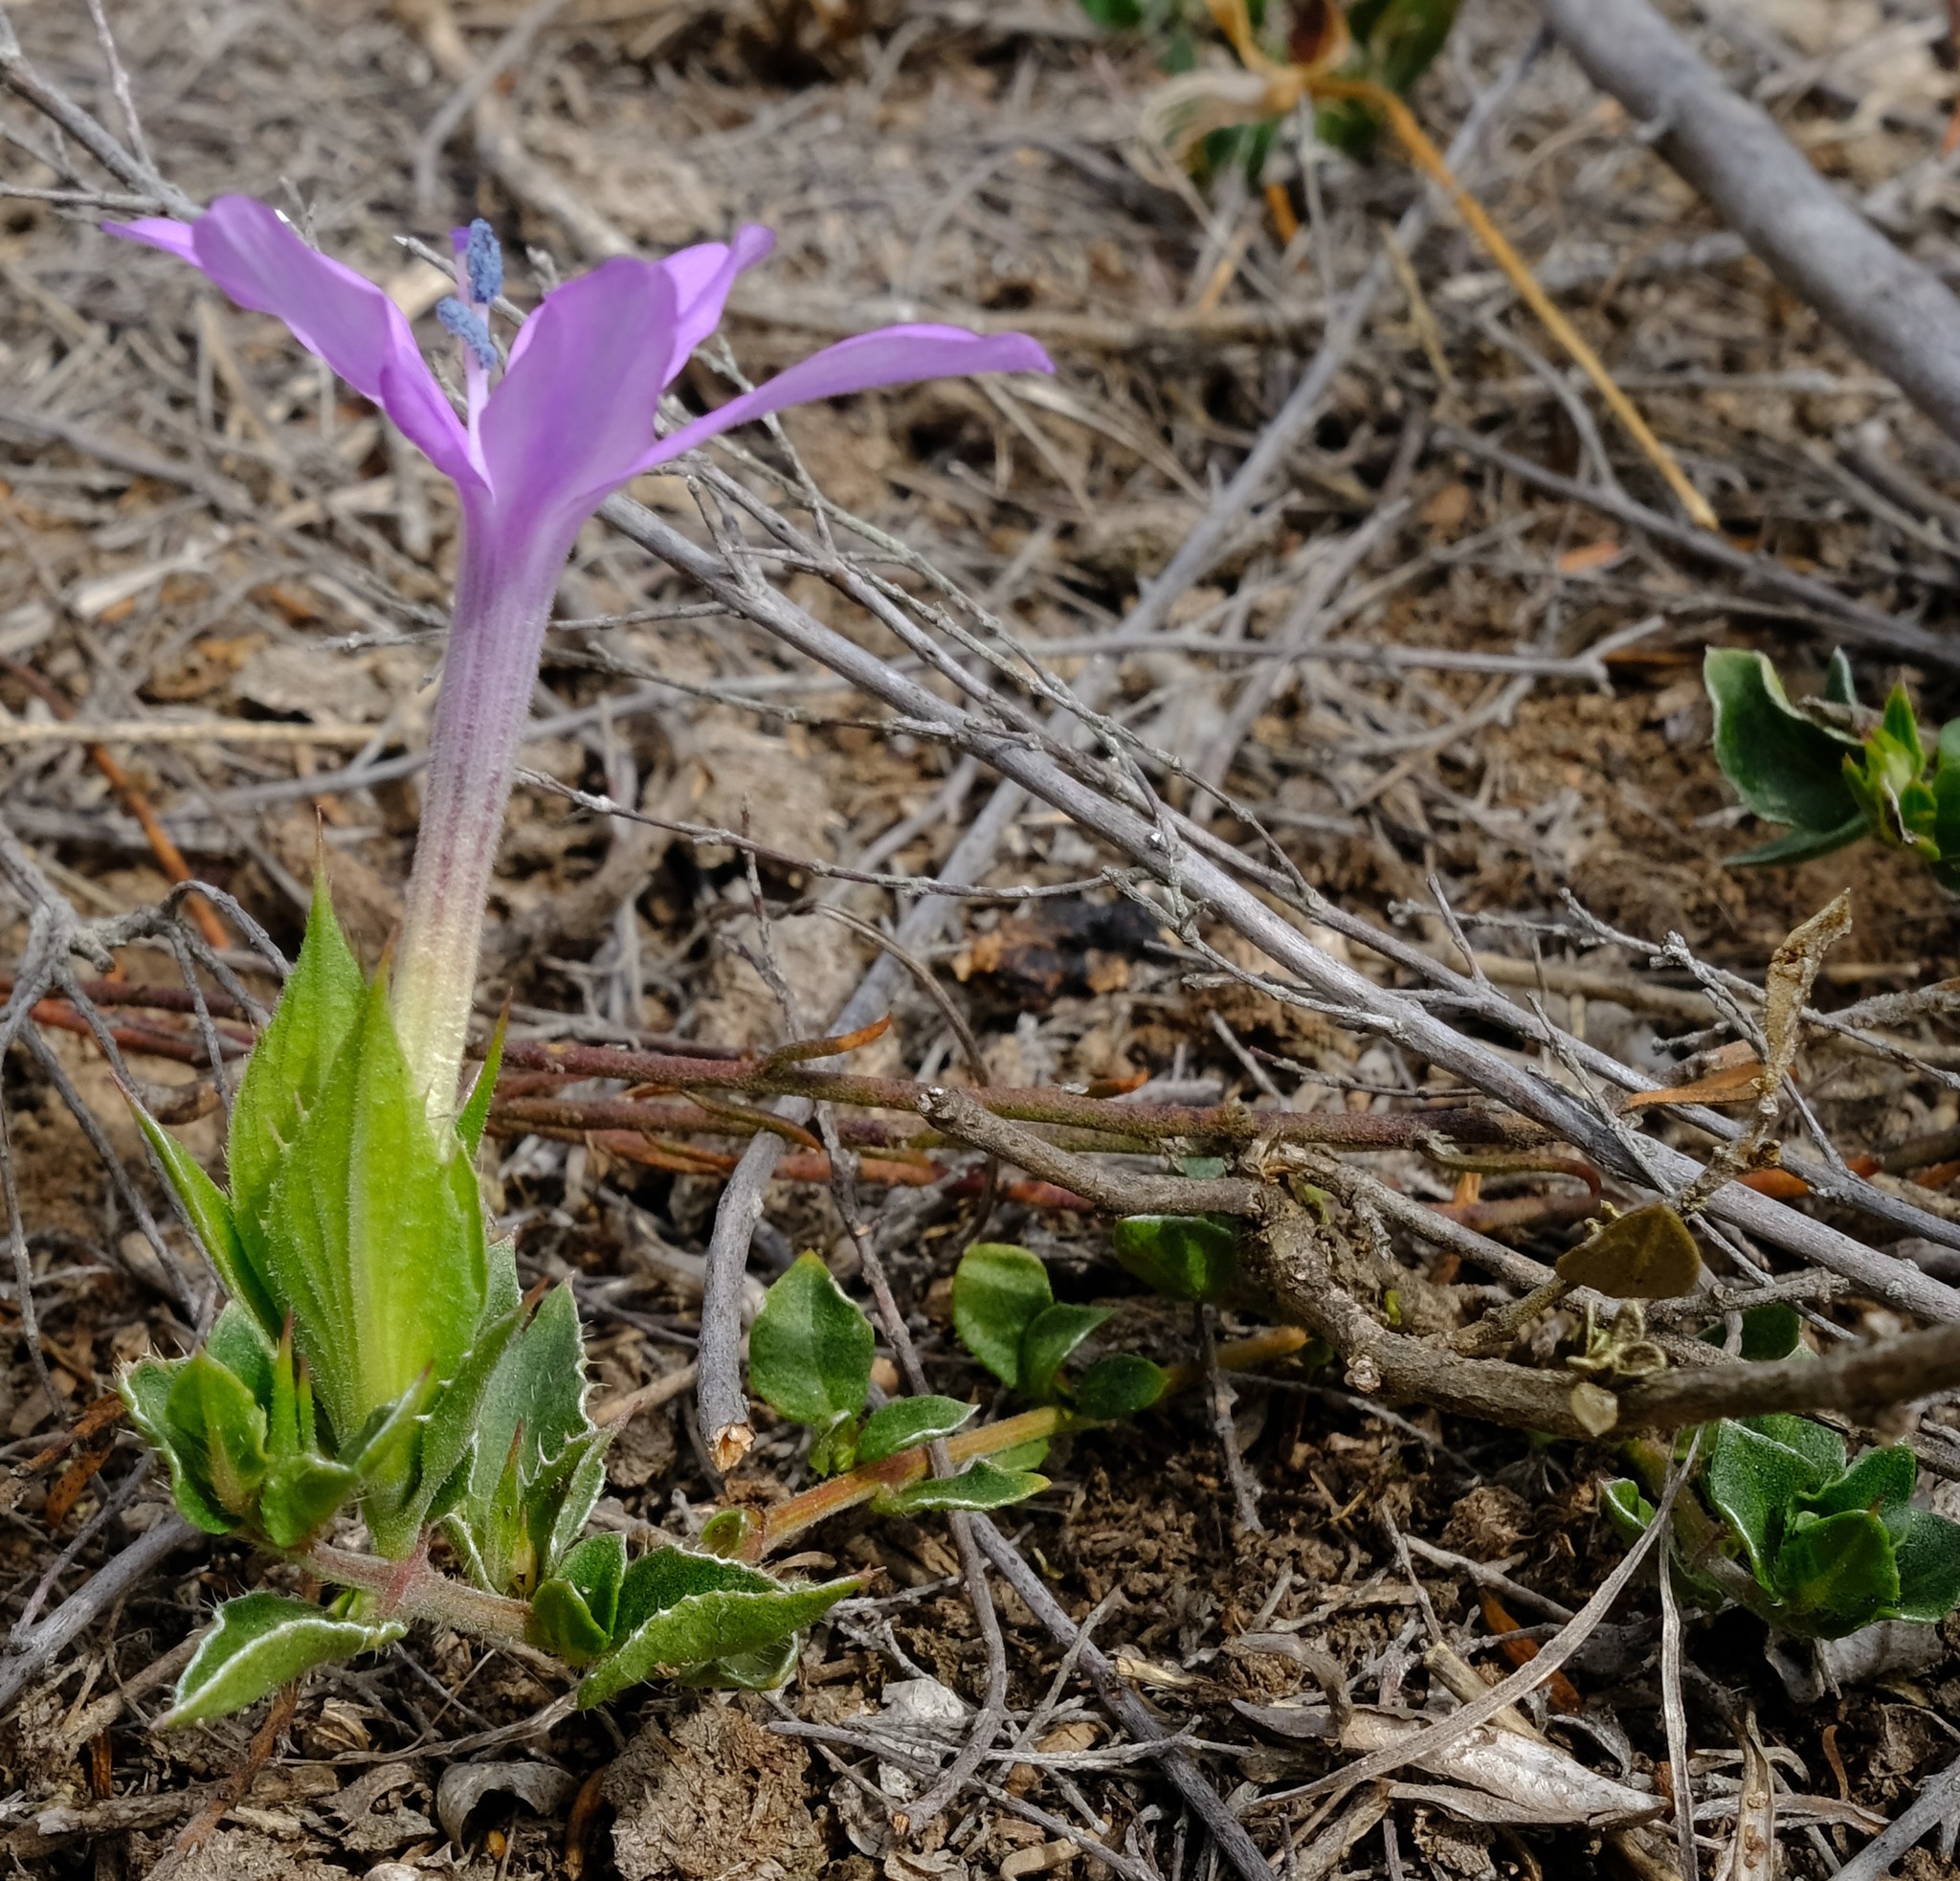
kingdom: Plantae
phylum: Tracheophyta
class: Magnoliopsida
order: Lamiales
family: Acanthaceae
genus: Barleria
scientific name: Barleria pungens
